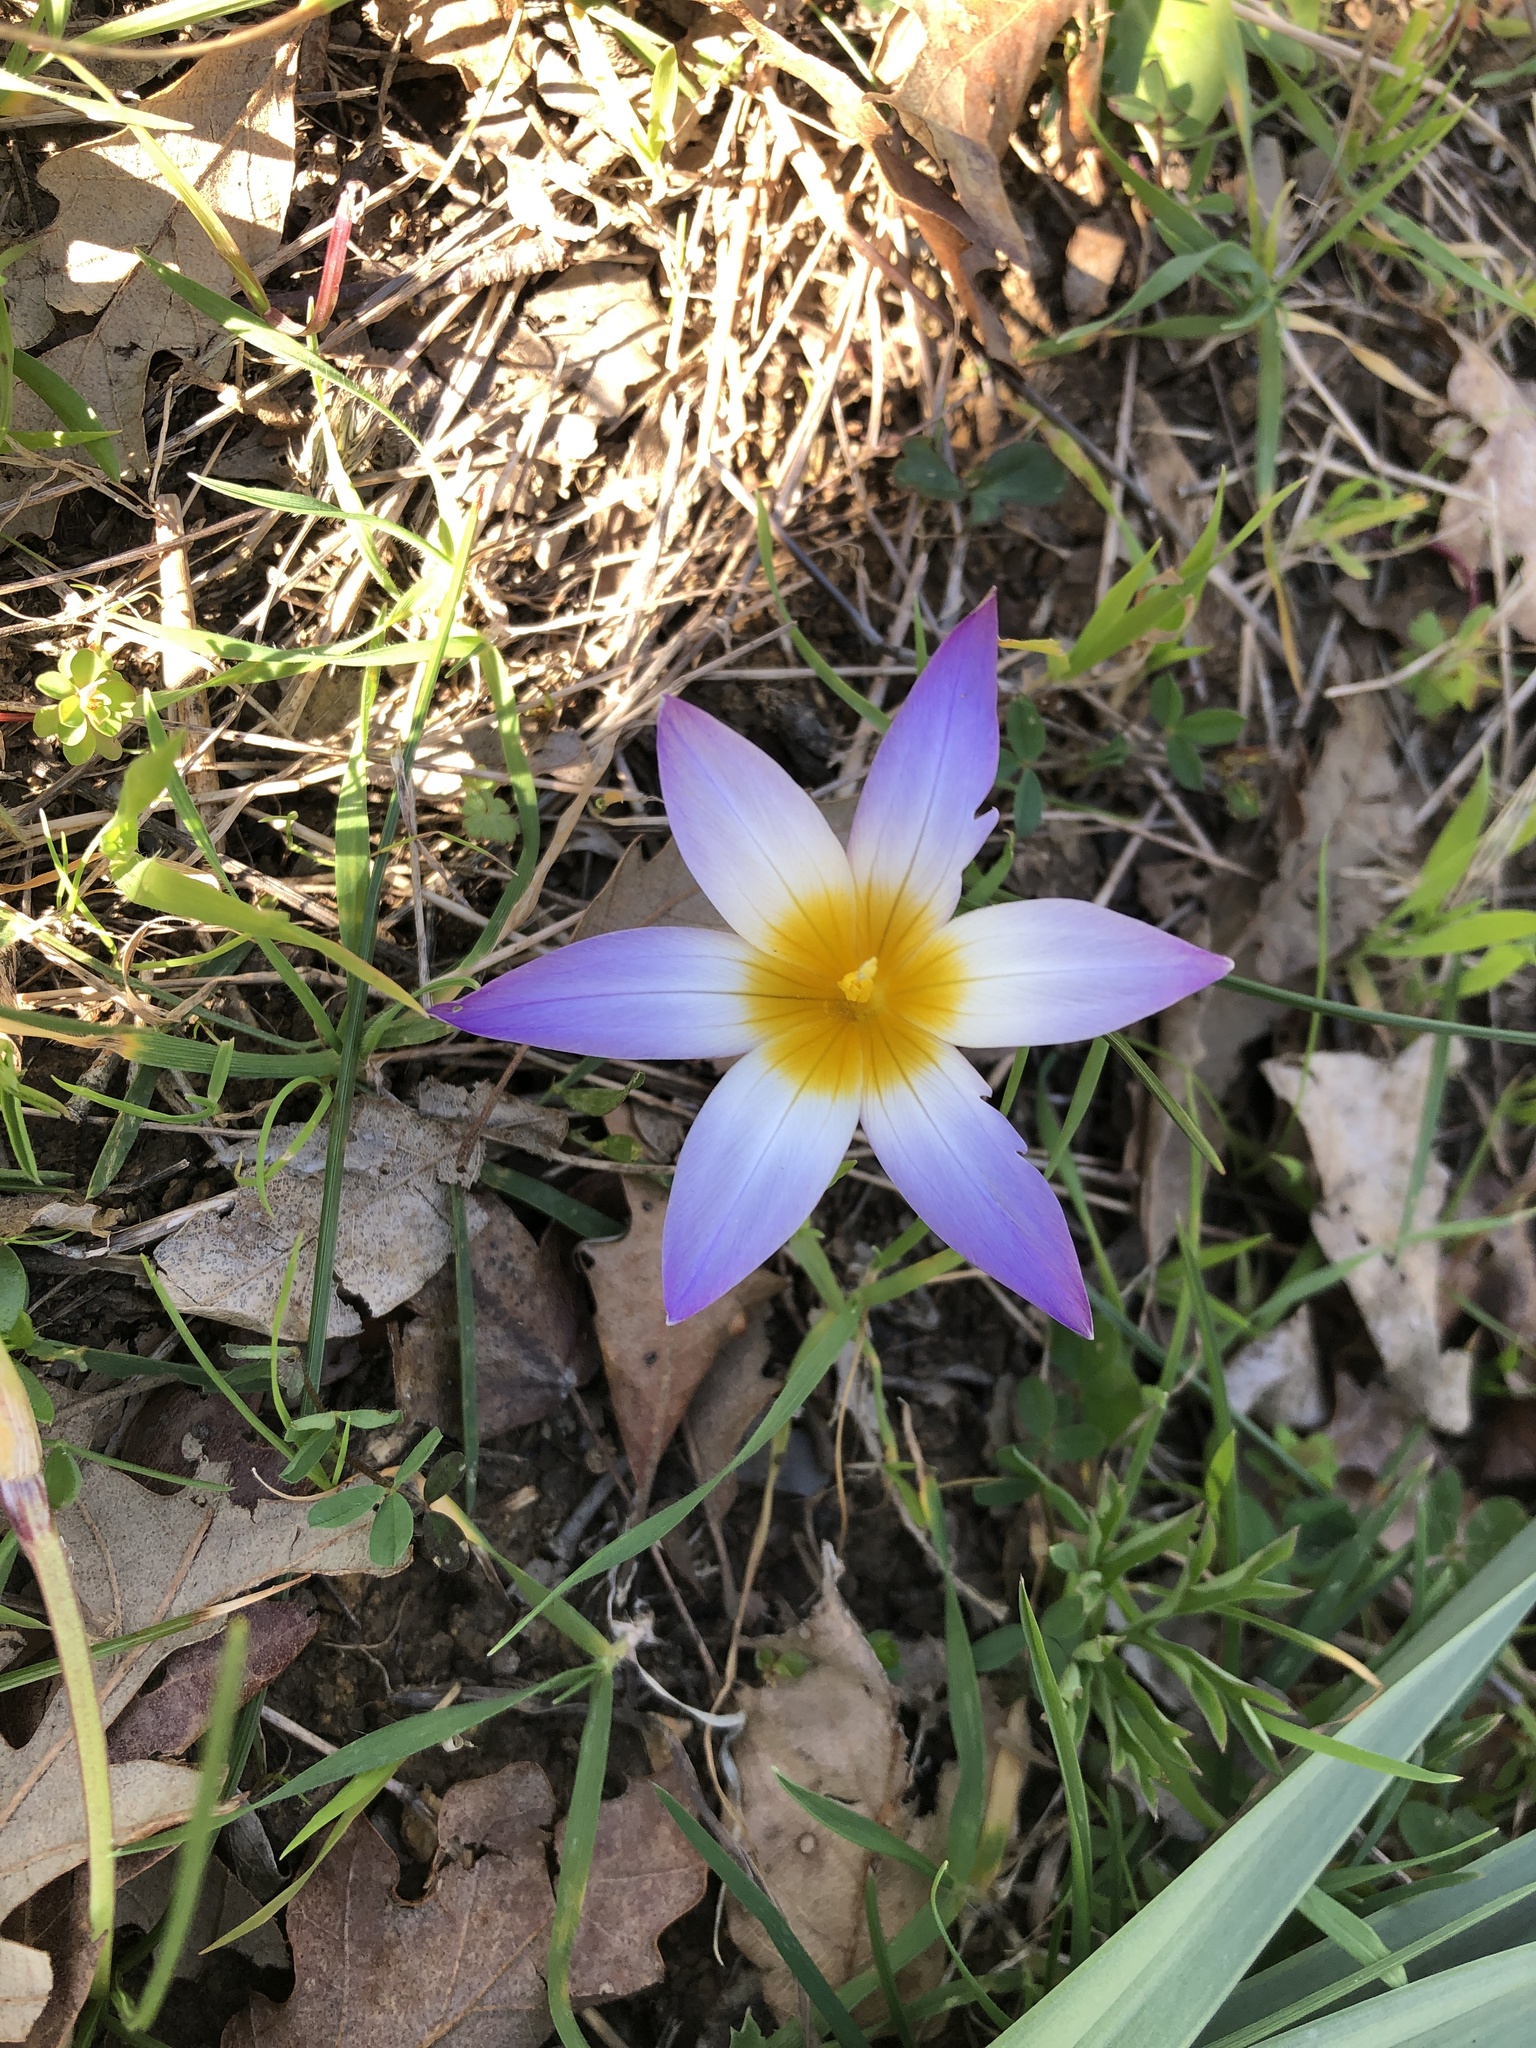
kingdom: Plantae
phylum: Tracheophyta
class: Liliopsida
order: Asparagales
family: Iridaceae
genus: Romulea
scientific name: Romulea bulbocodium
